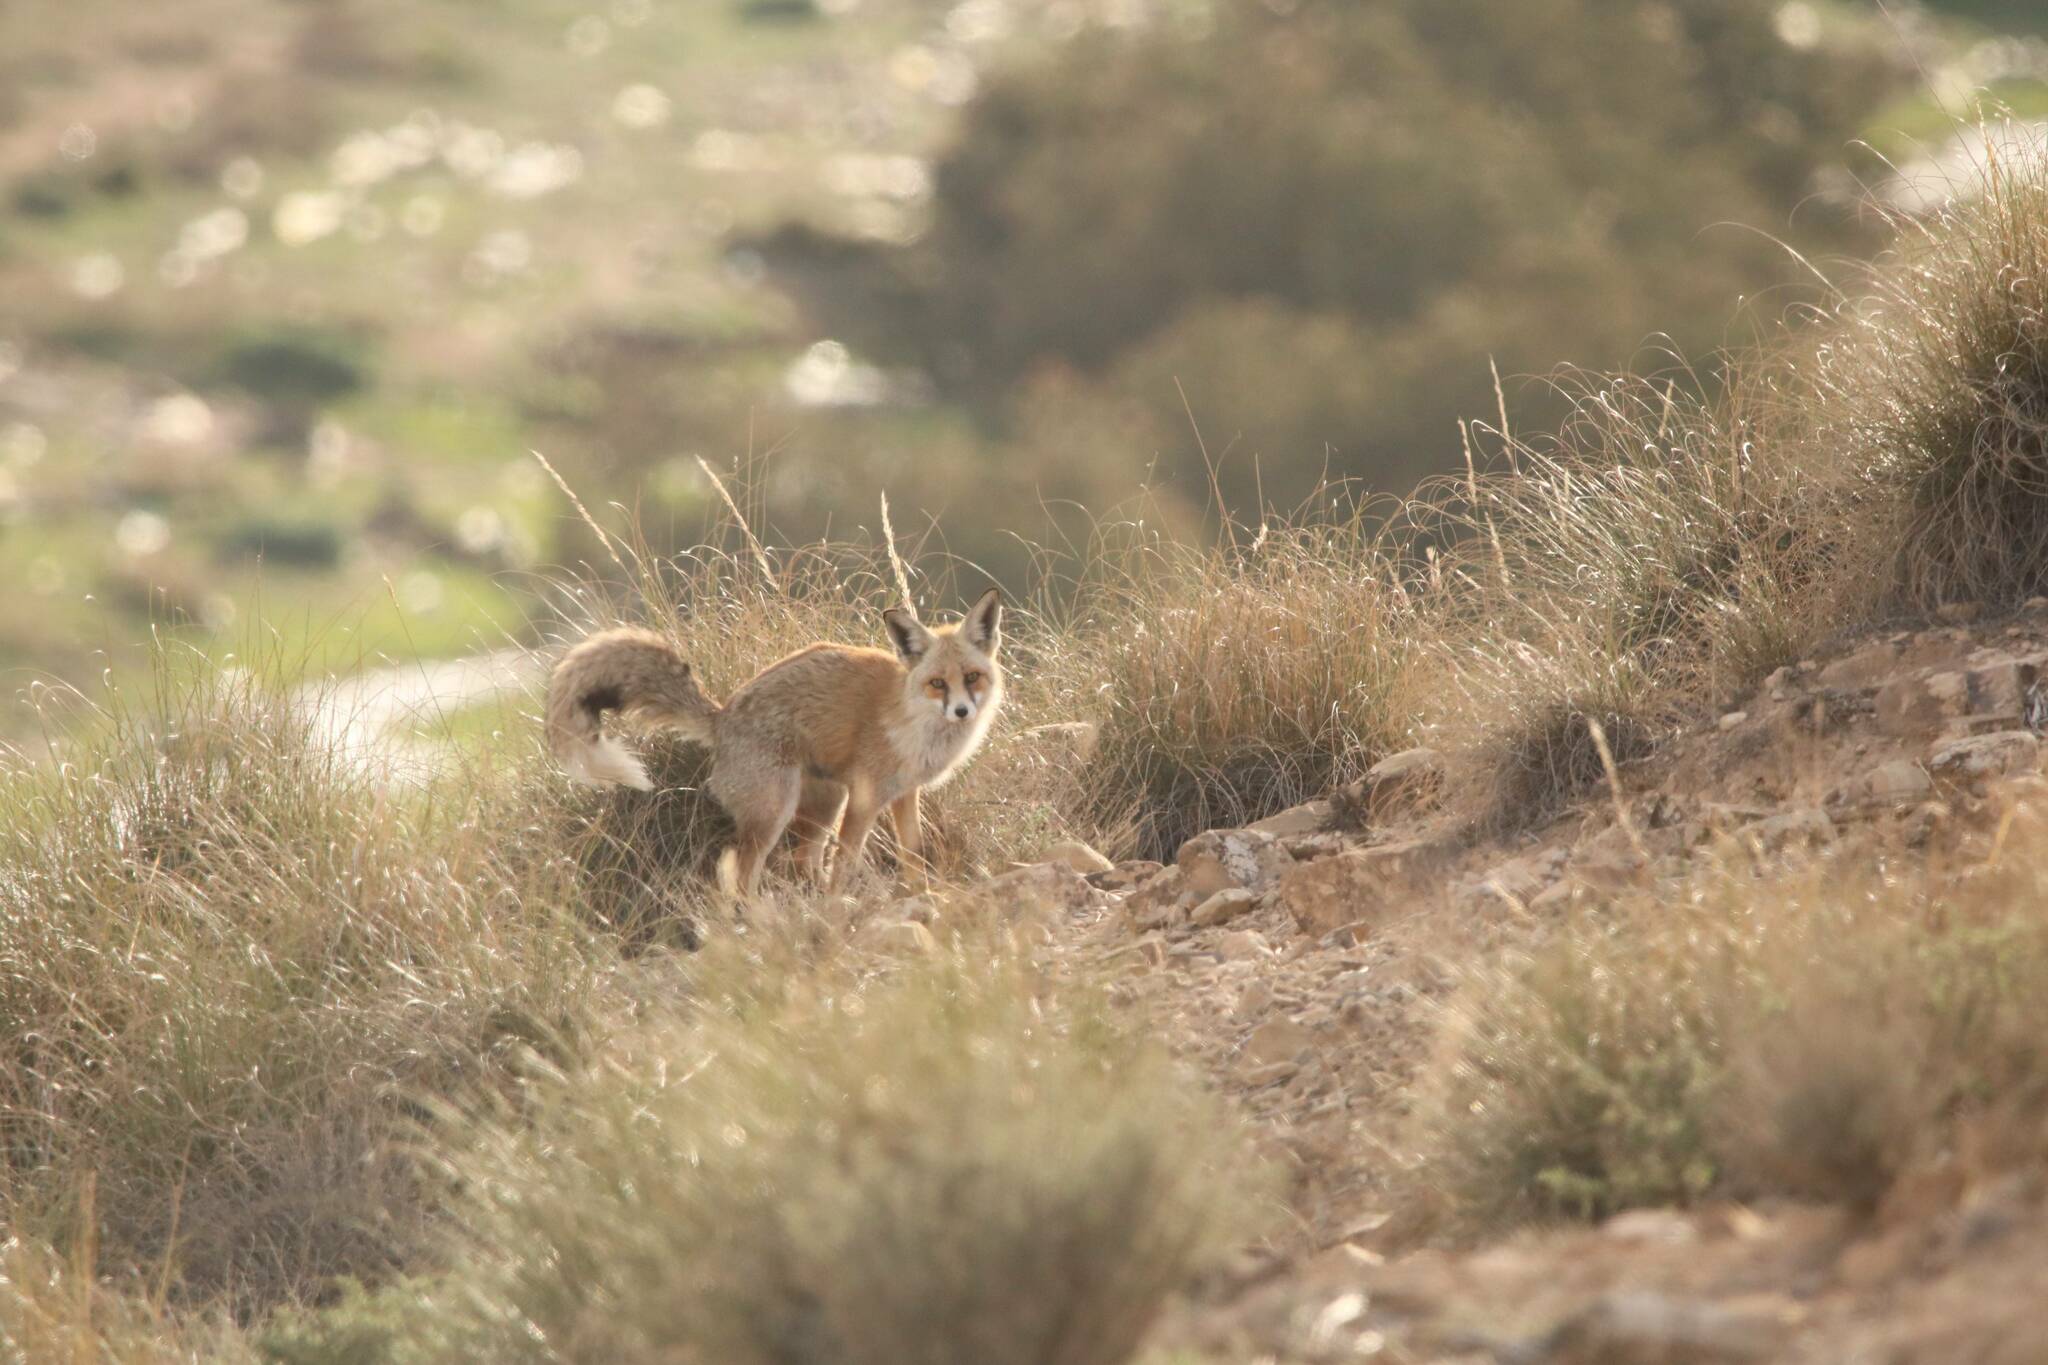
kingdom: Animalia
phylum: Chordata
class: Mammalia
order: Carnivora
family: Canidae
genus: Vulpes
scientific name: Vulpes vulpes
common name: Red fox
